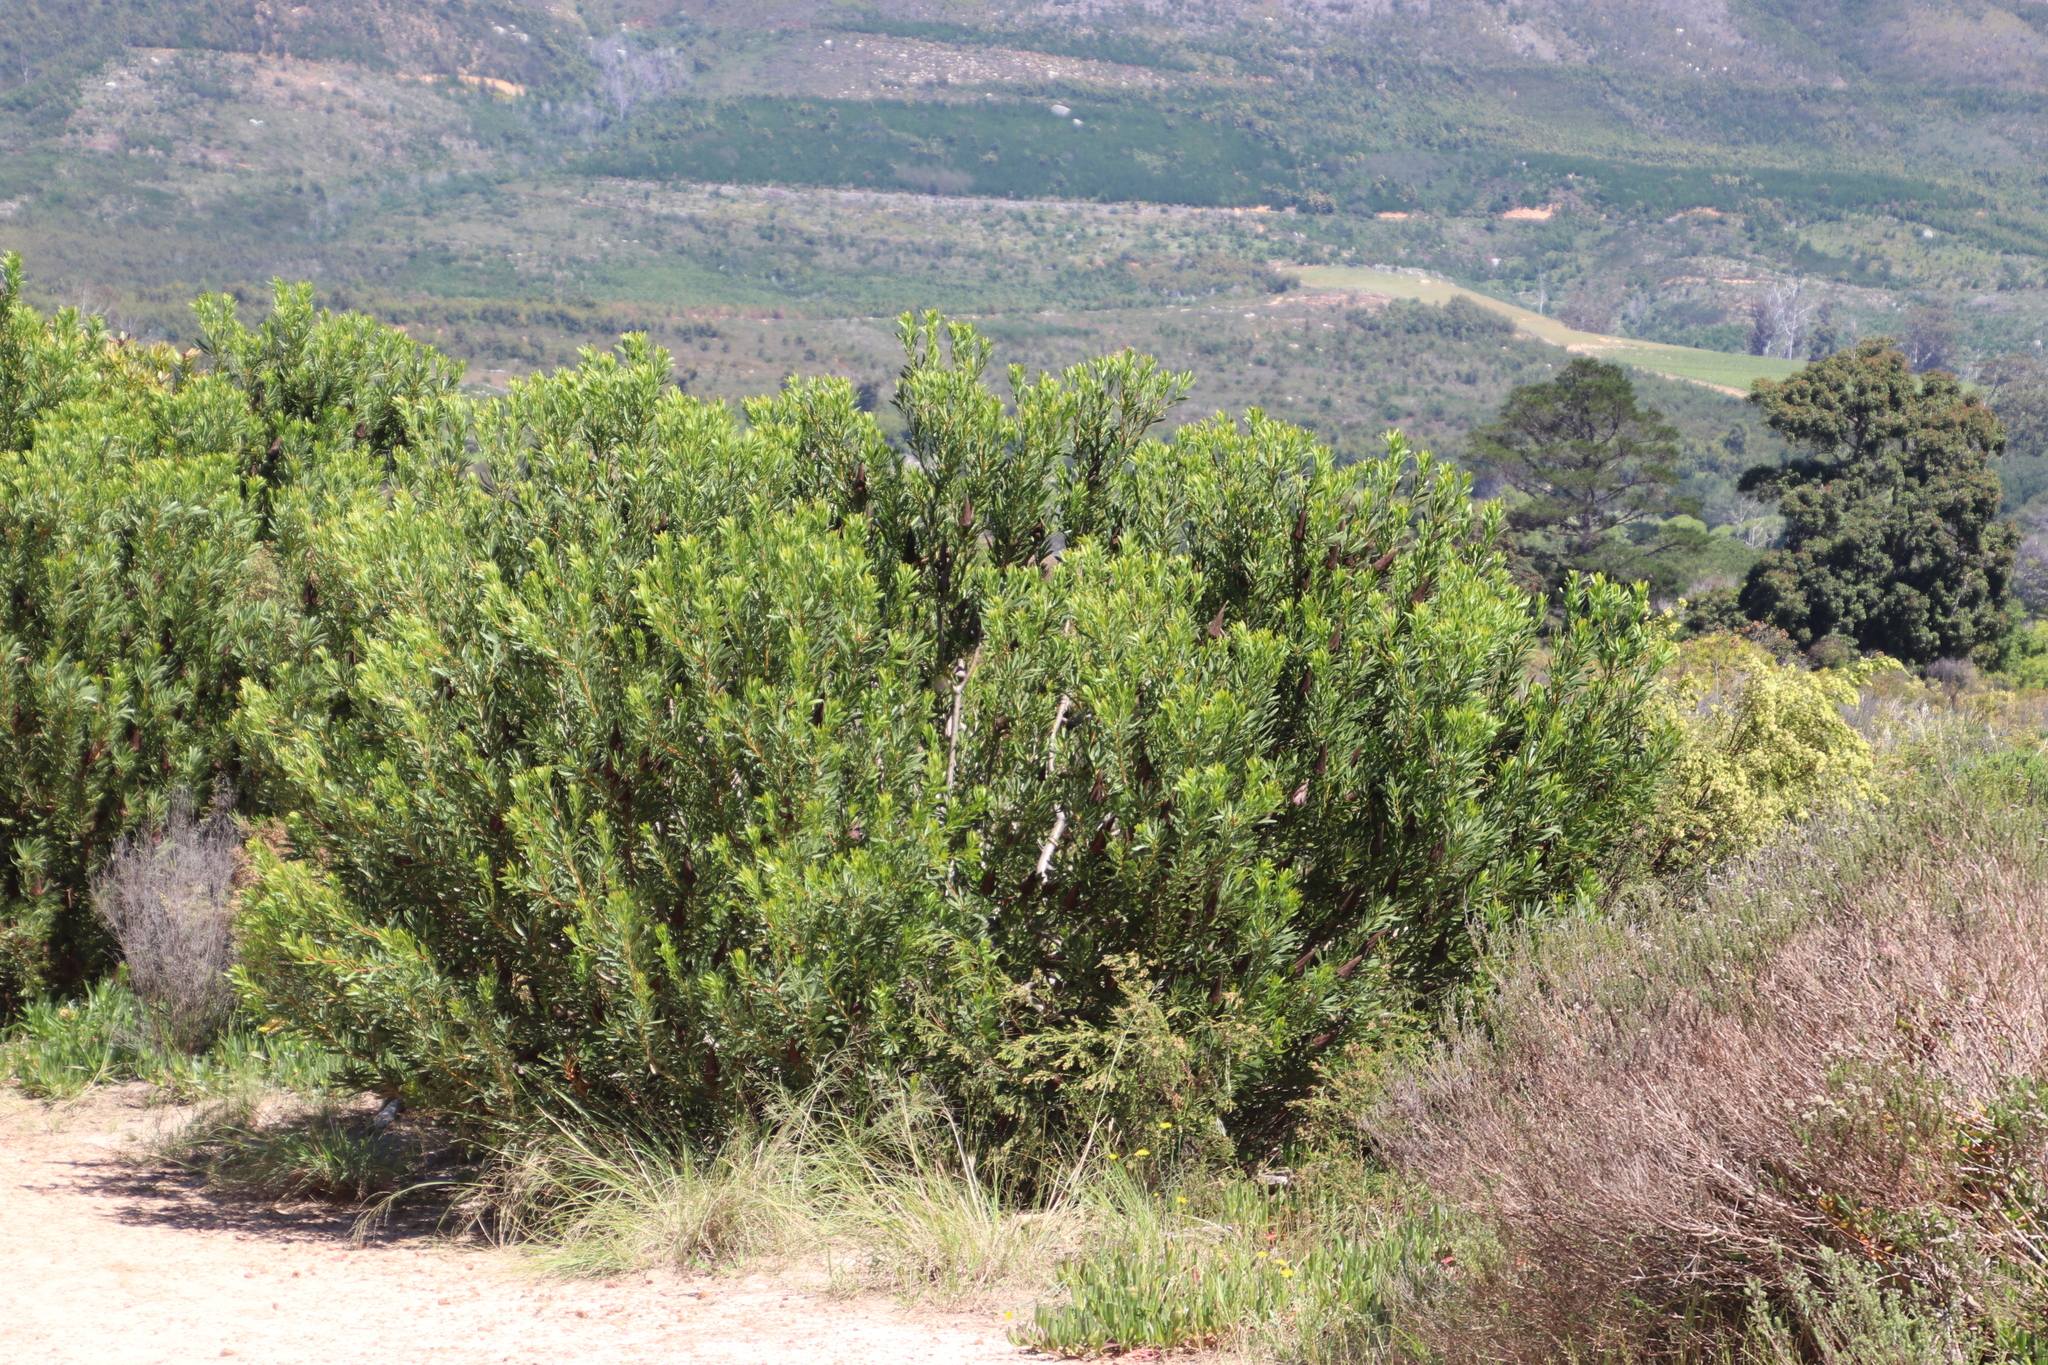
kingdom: Plantae
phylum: Tracheophyta
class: Magnoliopsida
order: Proteales
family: Proteaceae
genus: Protea
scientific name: Protea repens
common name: Sugarbush
